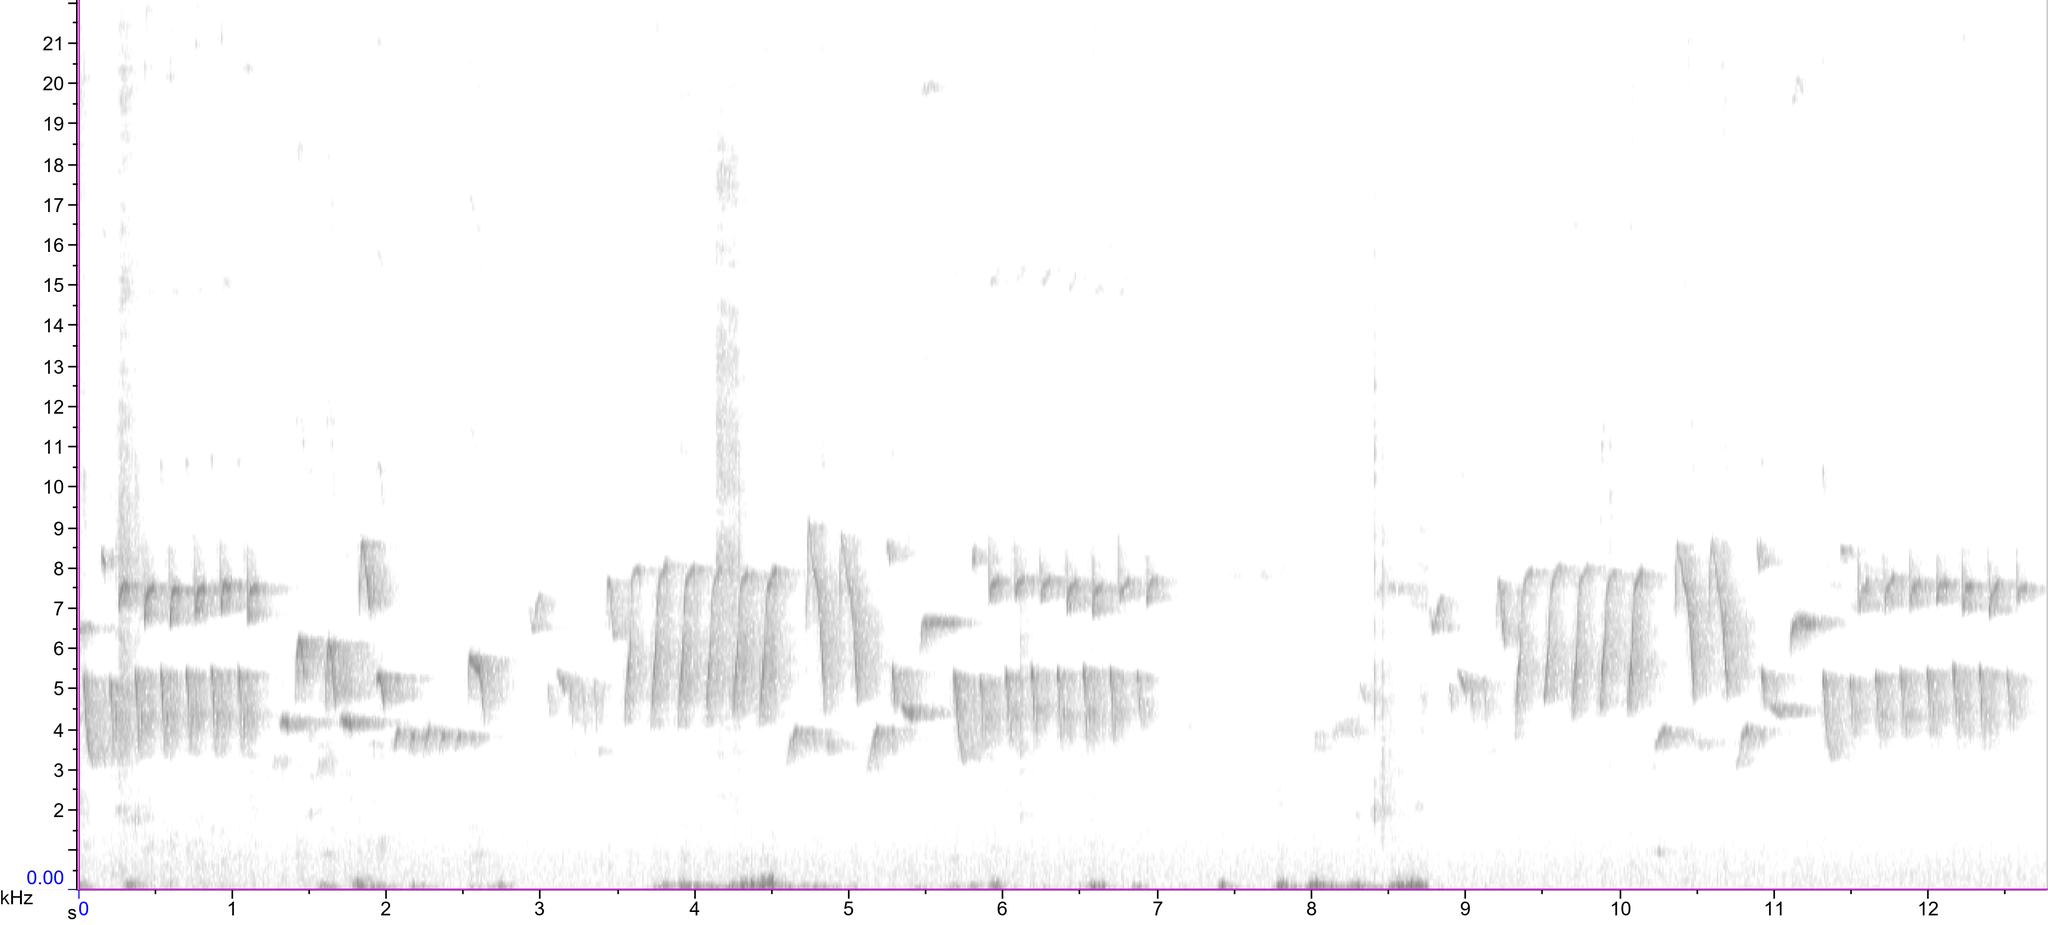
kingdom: Animalia
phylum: Chordata
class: Aves
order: Passeriformes
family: Troglodytidae
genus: Troglodytes
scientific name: Troglodytes troglodytes
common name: Eurasian wren
